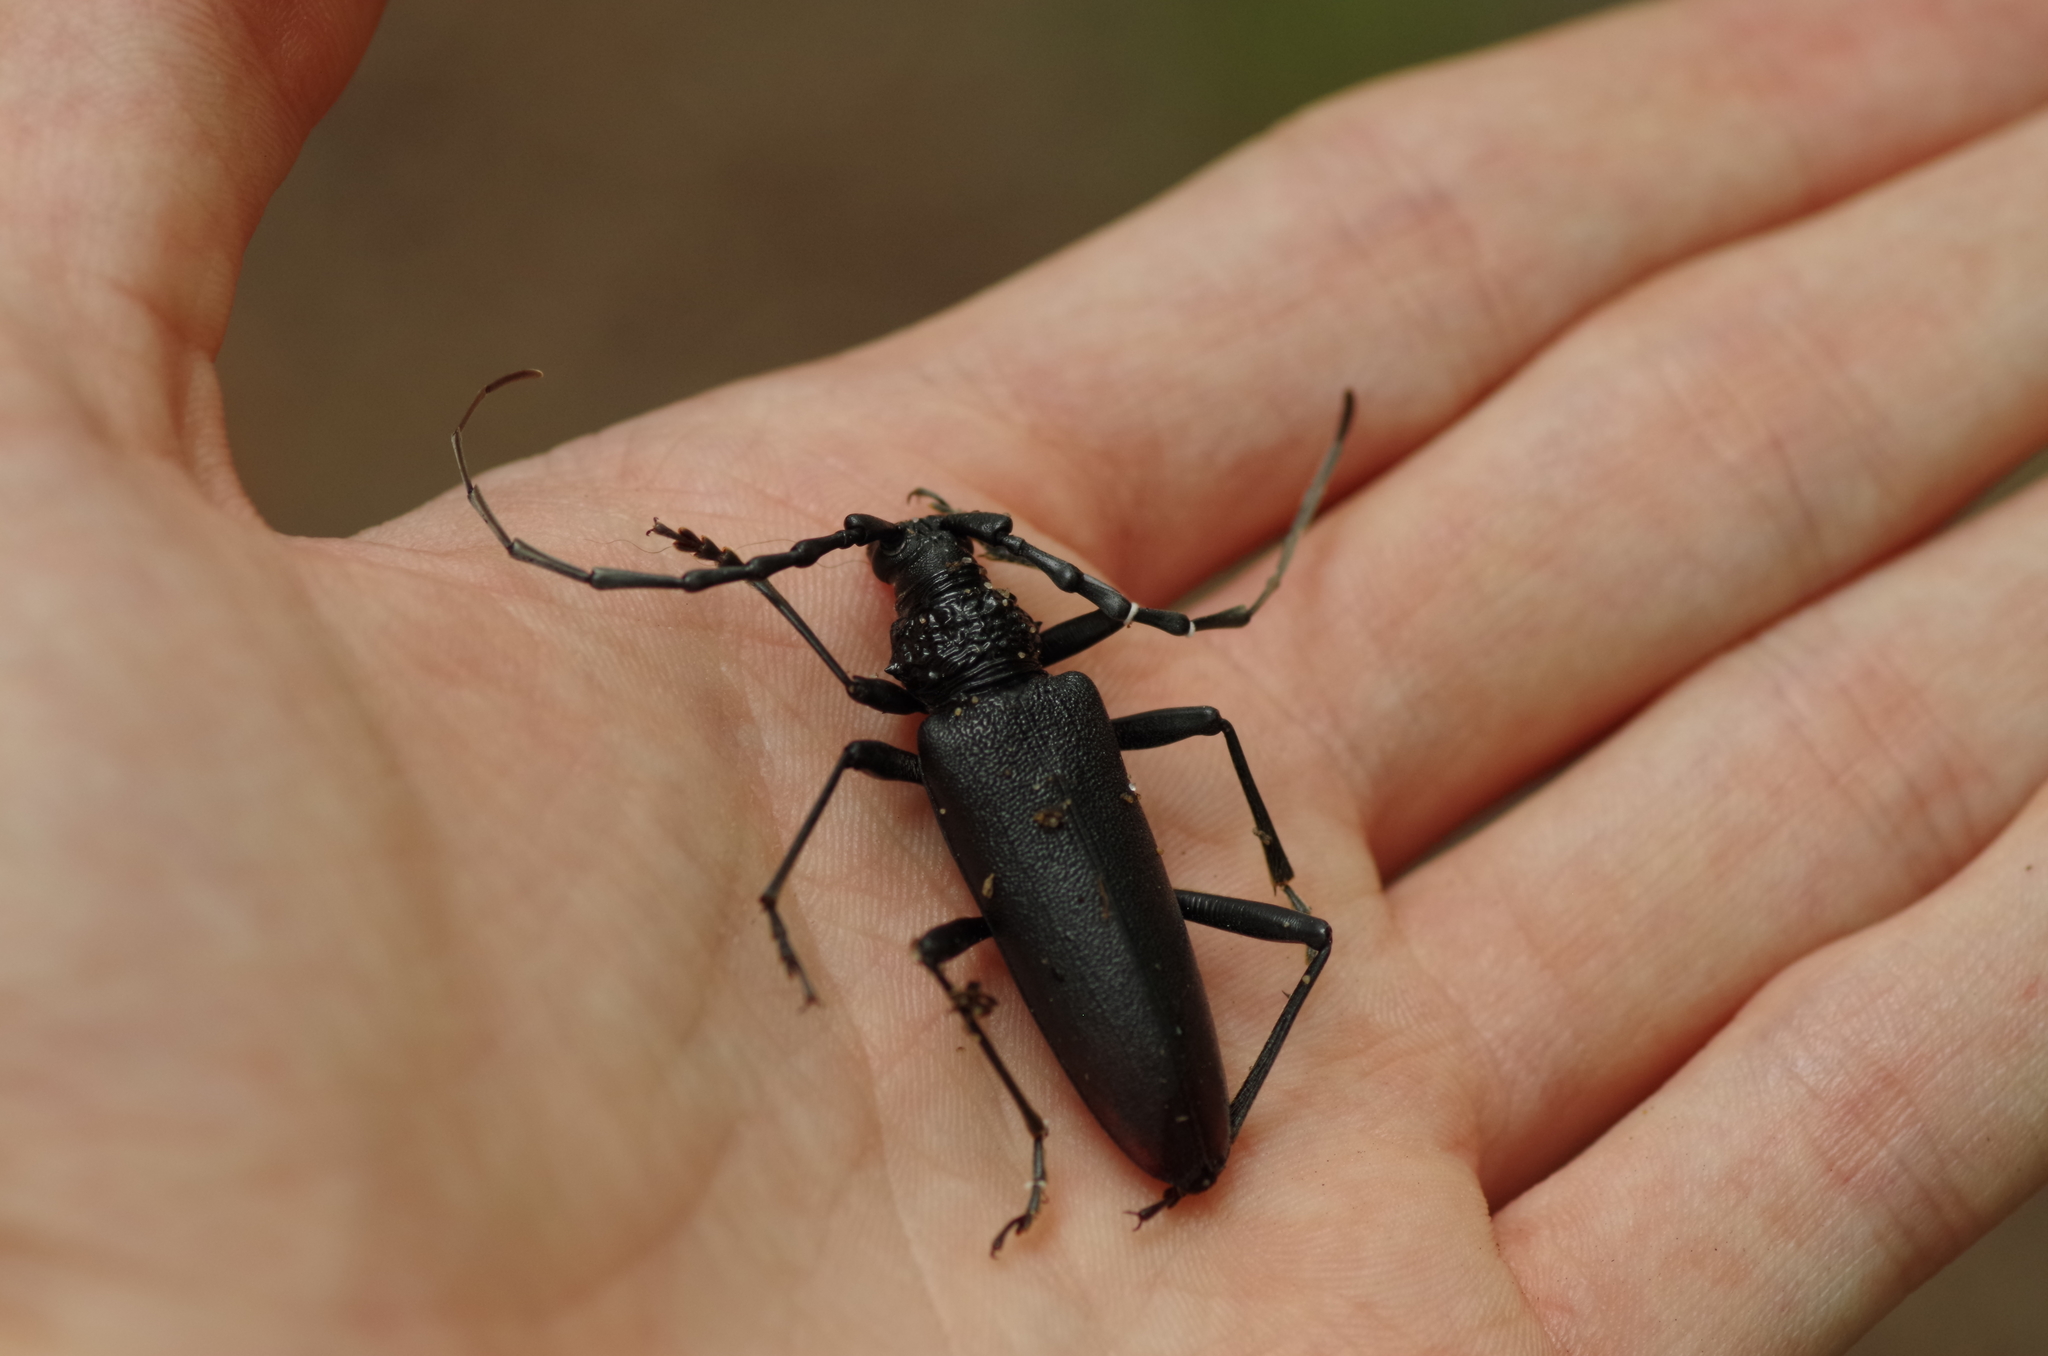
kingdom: Animalia
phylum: Arthropoda
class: Insecta
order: Coleoptera
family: Cerambycidae
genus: Cerambyx
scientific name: Cerambyx cerdo
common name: Cerambyx longicorn
